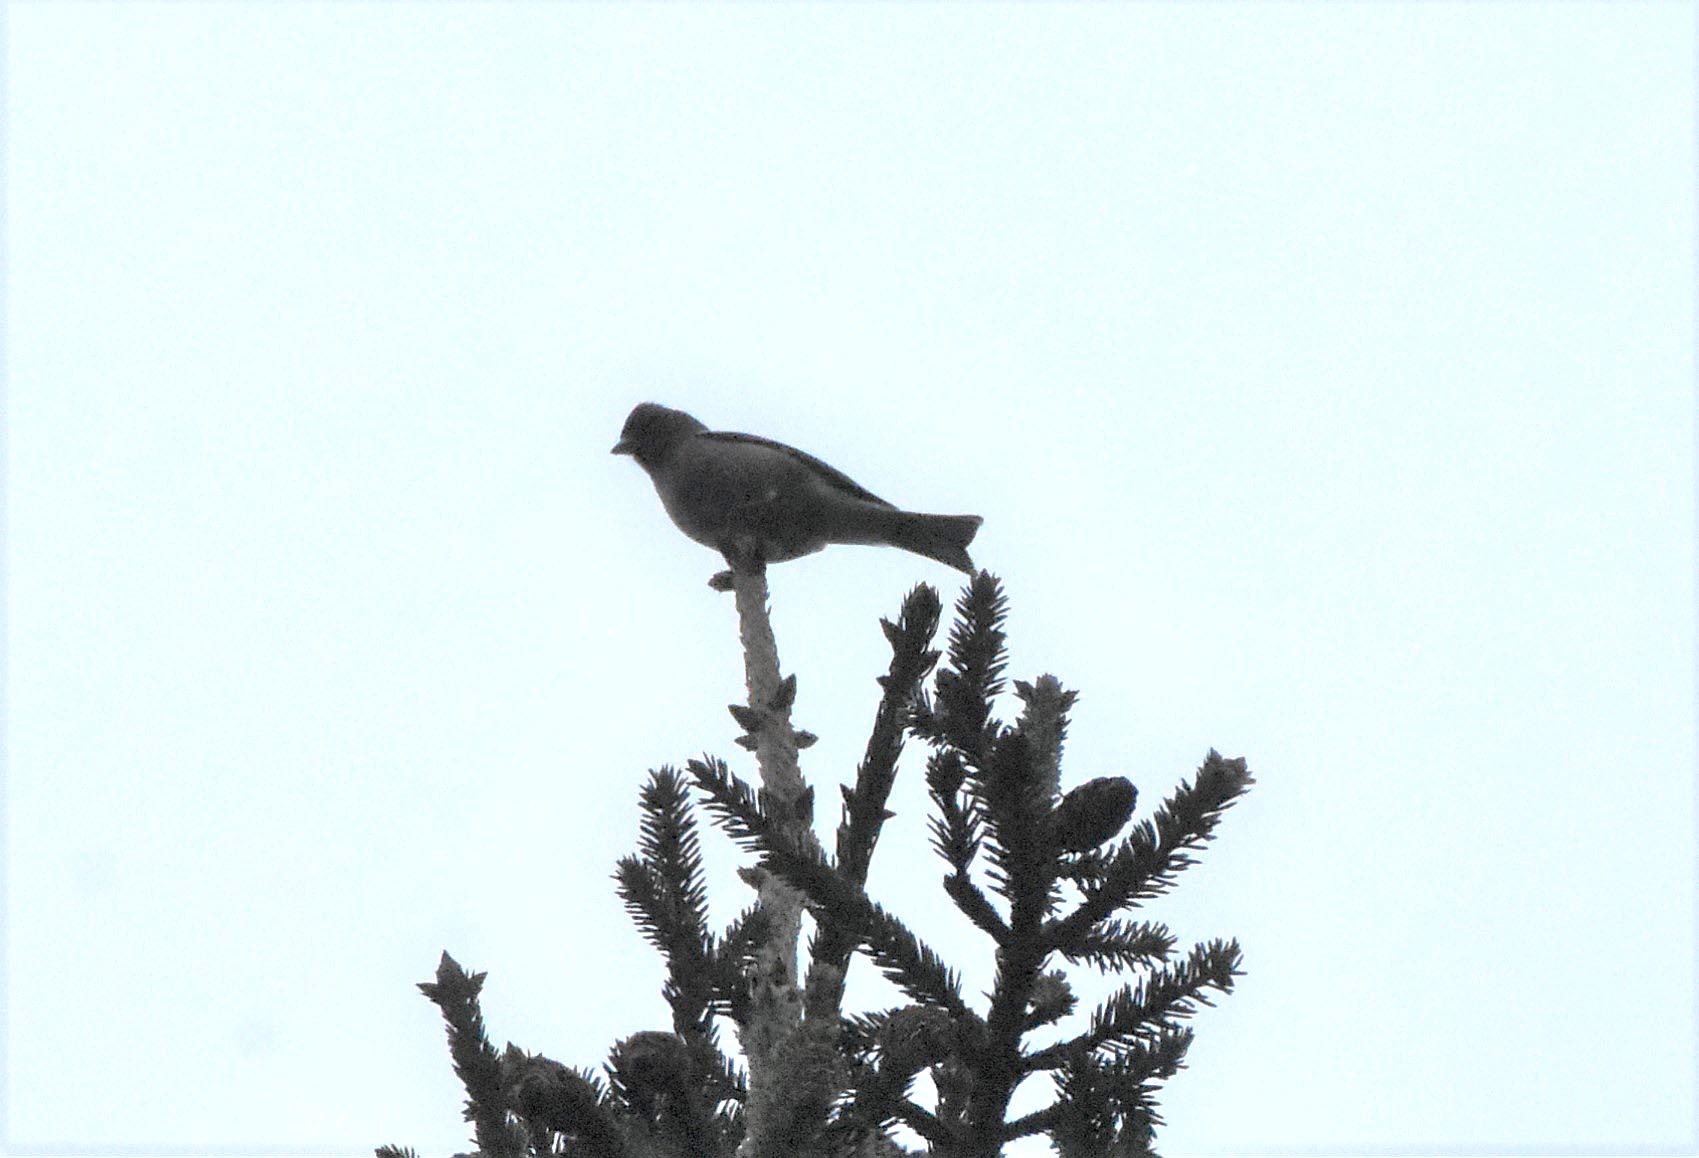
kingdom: Animalia
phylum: Chordata
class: Aves
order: Passeriformes
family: Fringillidae
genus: Fringilla
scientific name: Fringilla coelebs
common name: Common chaffinch
